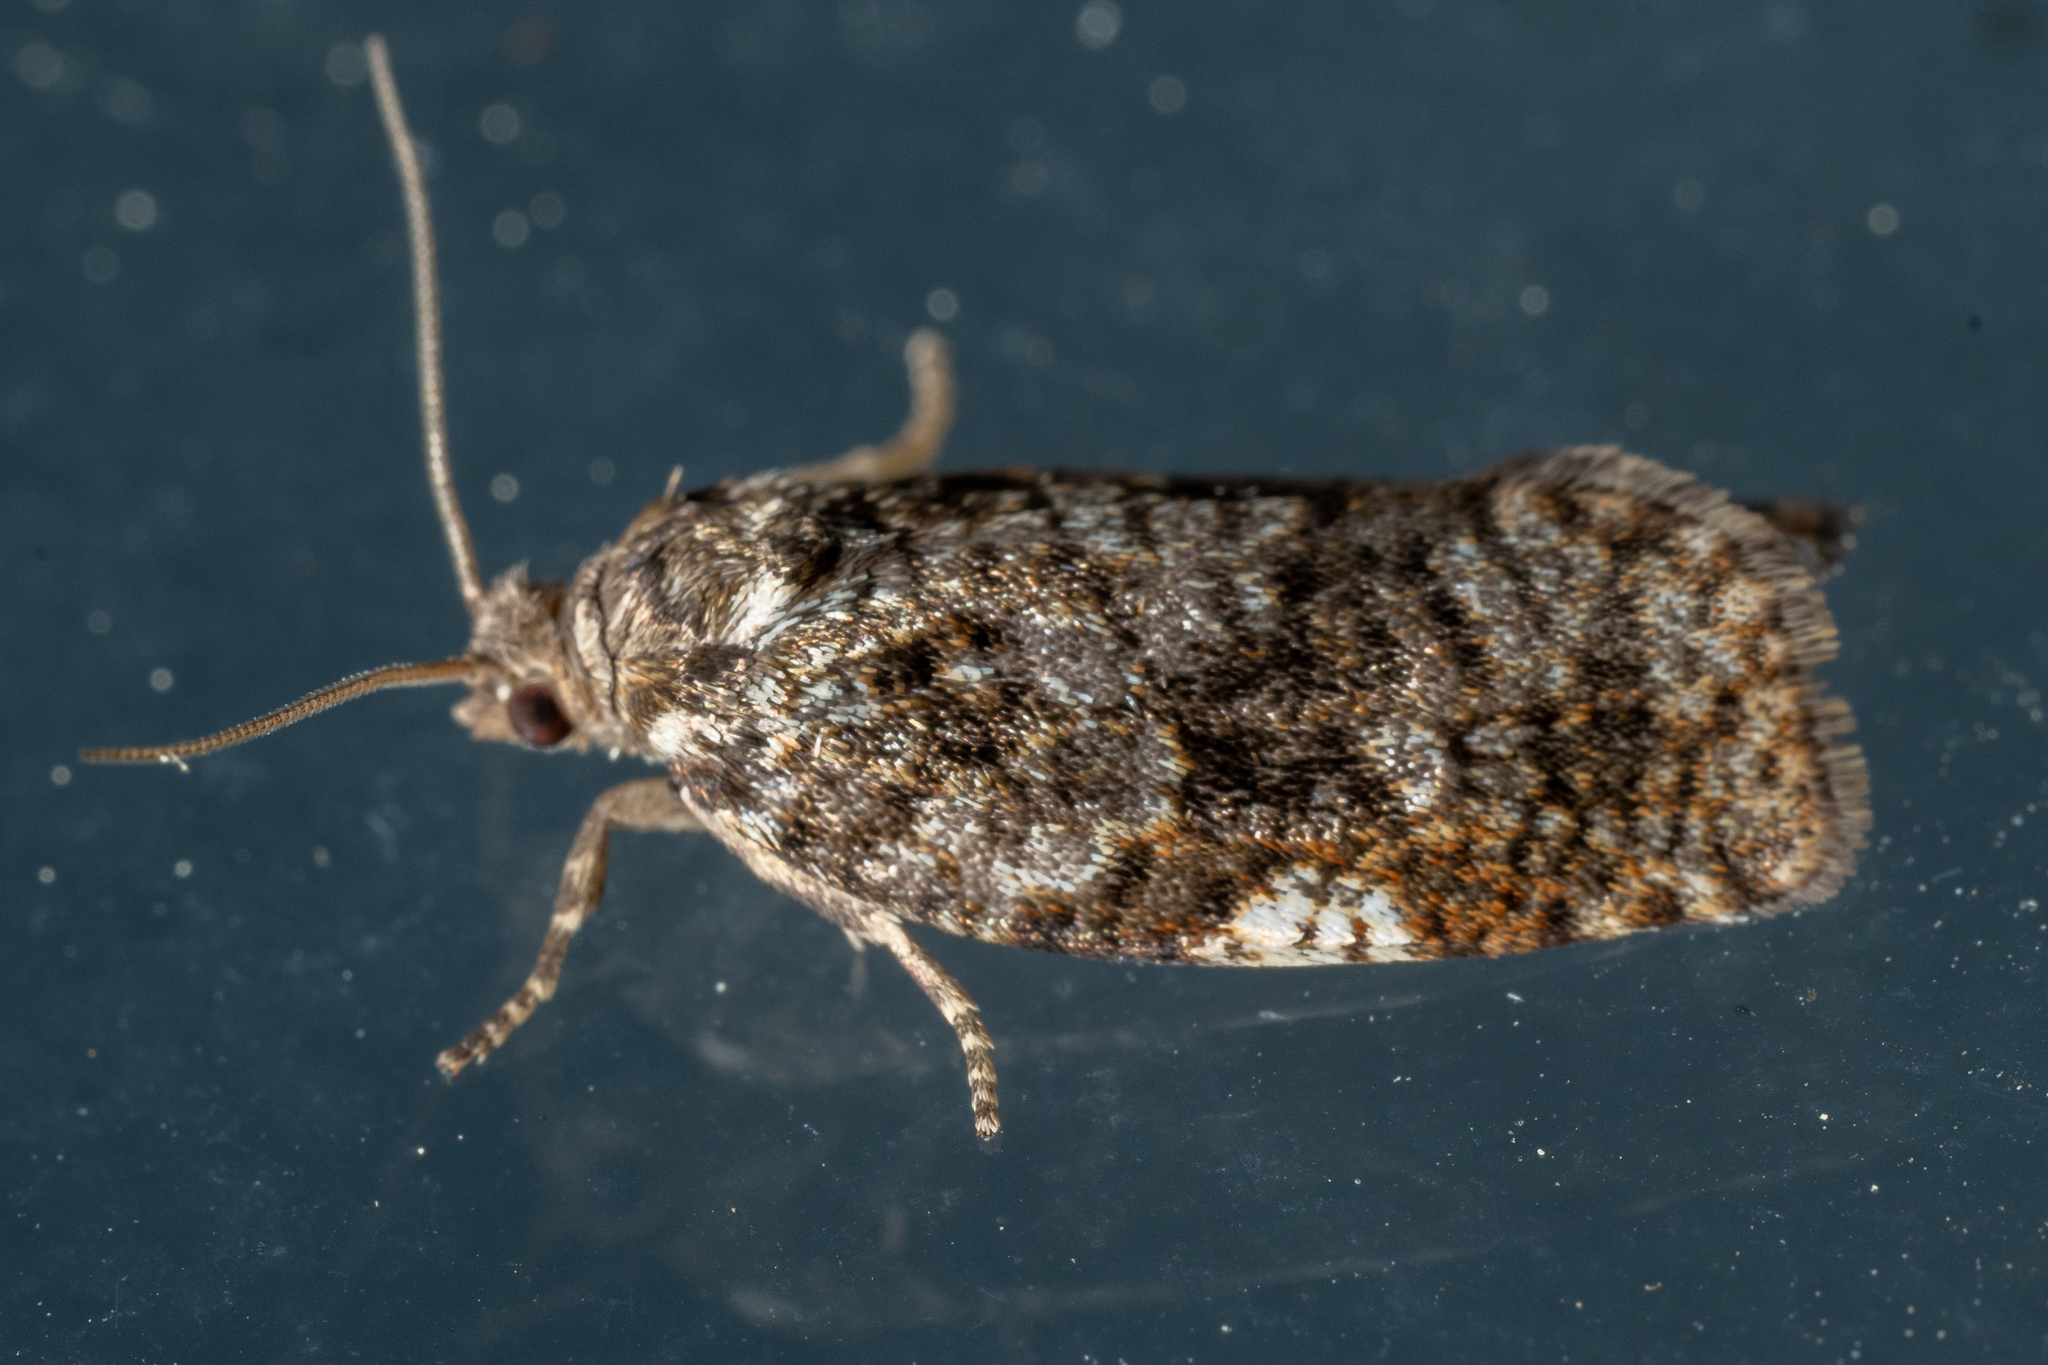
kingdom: Animalia
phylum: Arthropoda
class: Insecta
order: Lepidoptera
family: Tortricidae
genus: Choristoneura
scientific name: Choristoneura fumiferana
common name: Spruce budworm
